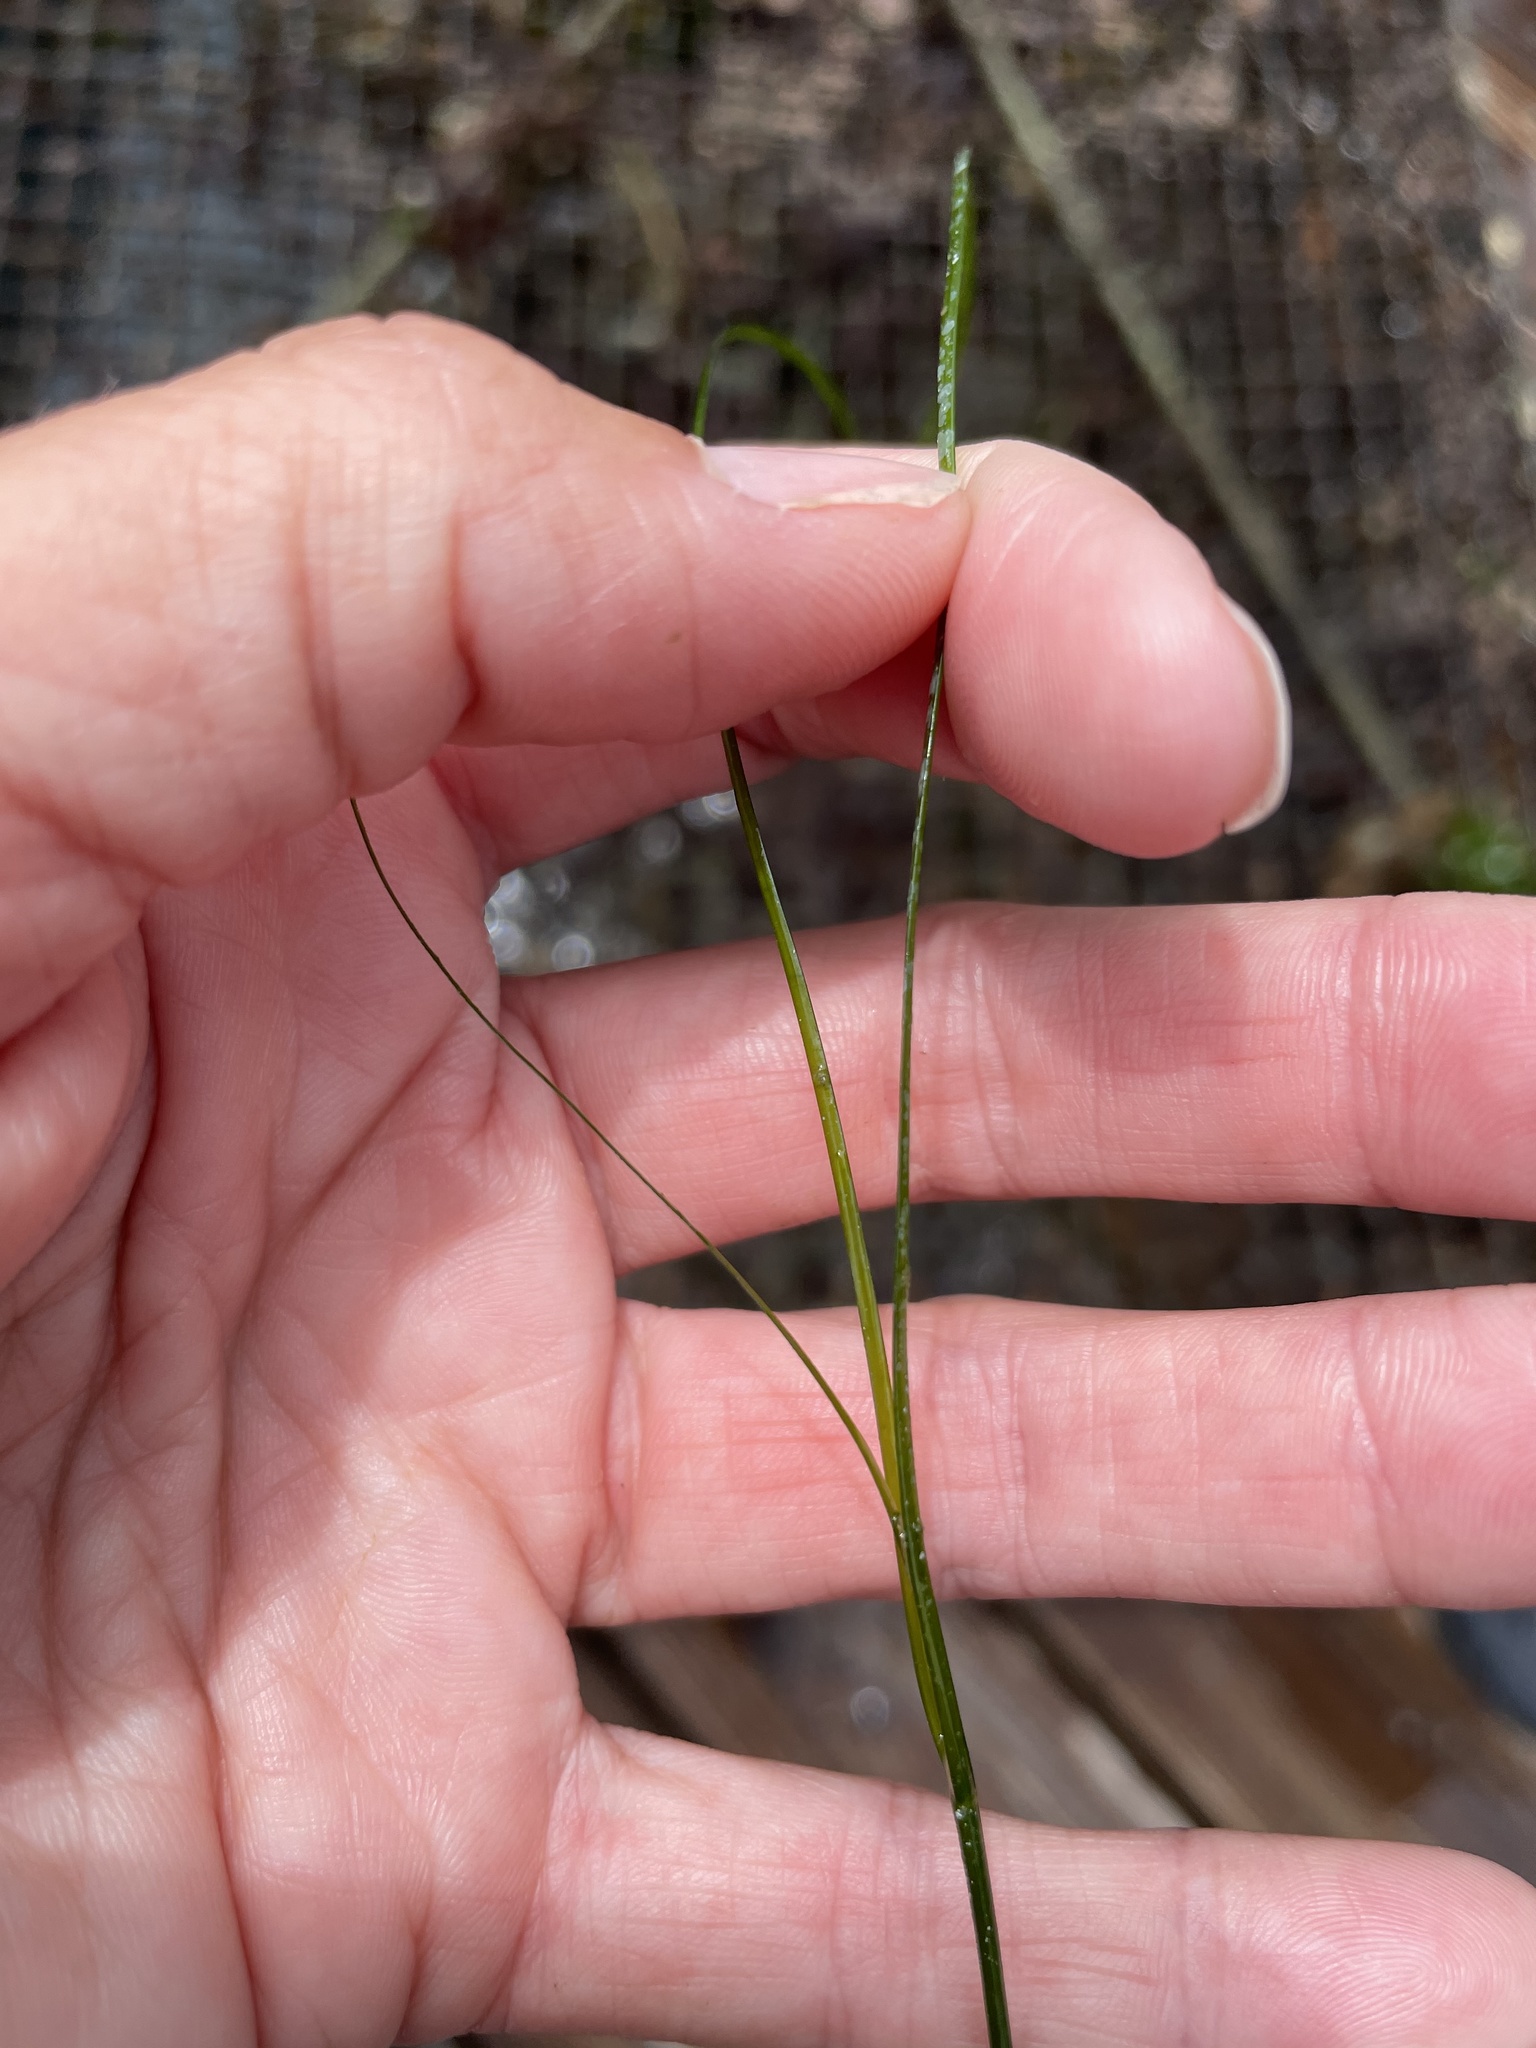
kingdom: Plantae
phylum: Tracheophyta
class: Liliopsida
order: Alismatales
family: Zosteraceae
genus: Phyllospadix
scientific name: Phyllospadix torreyi
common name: Surfgrass
